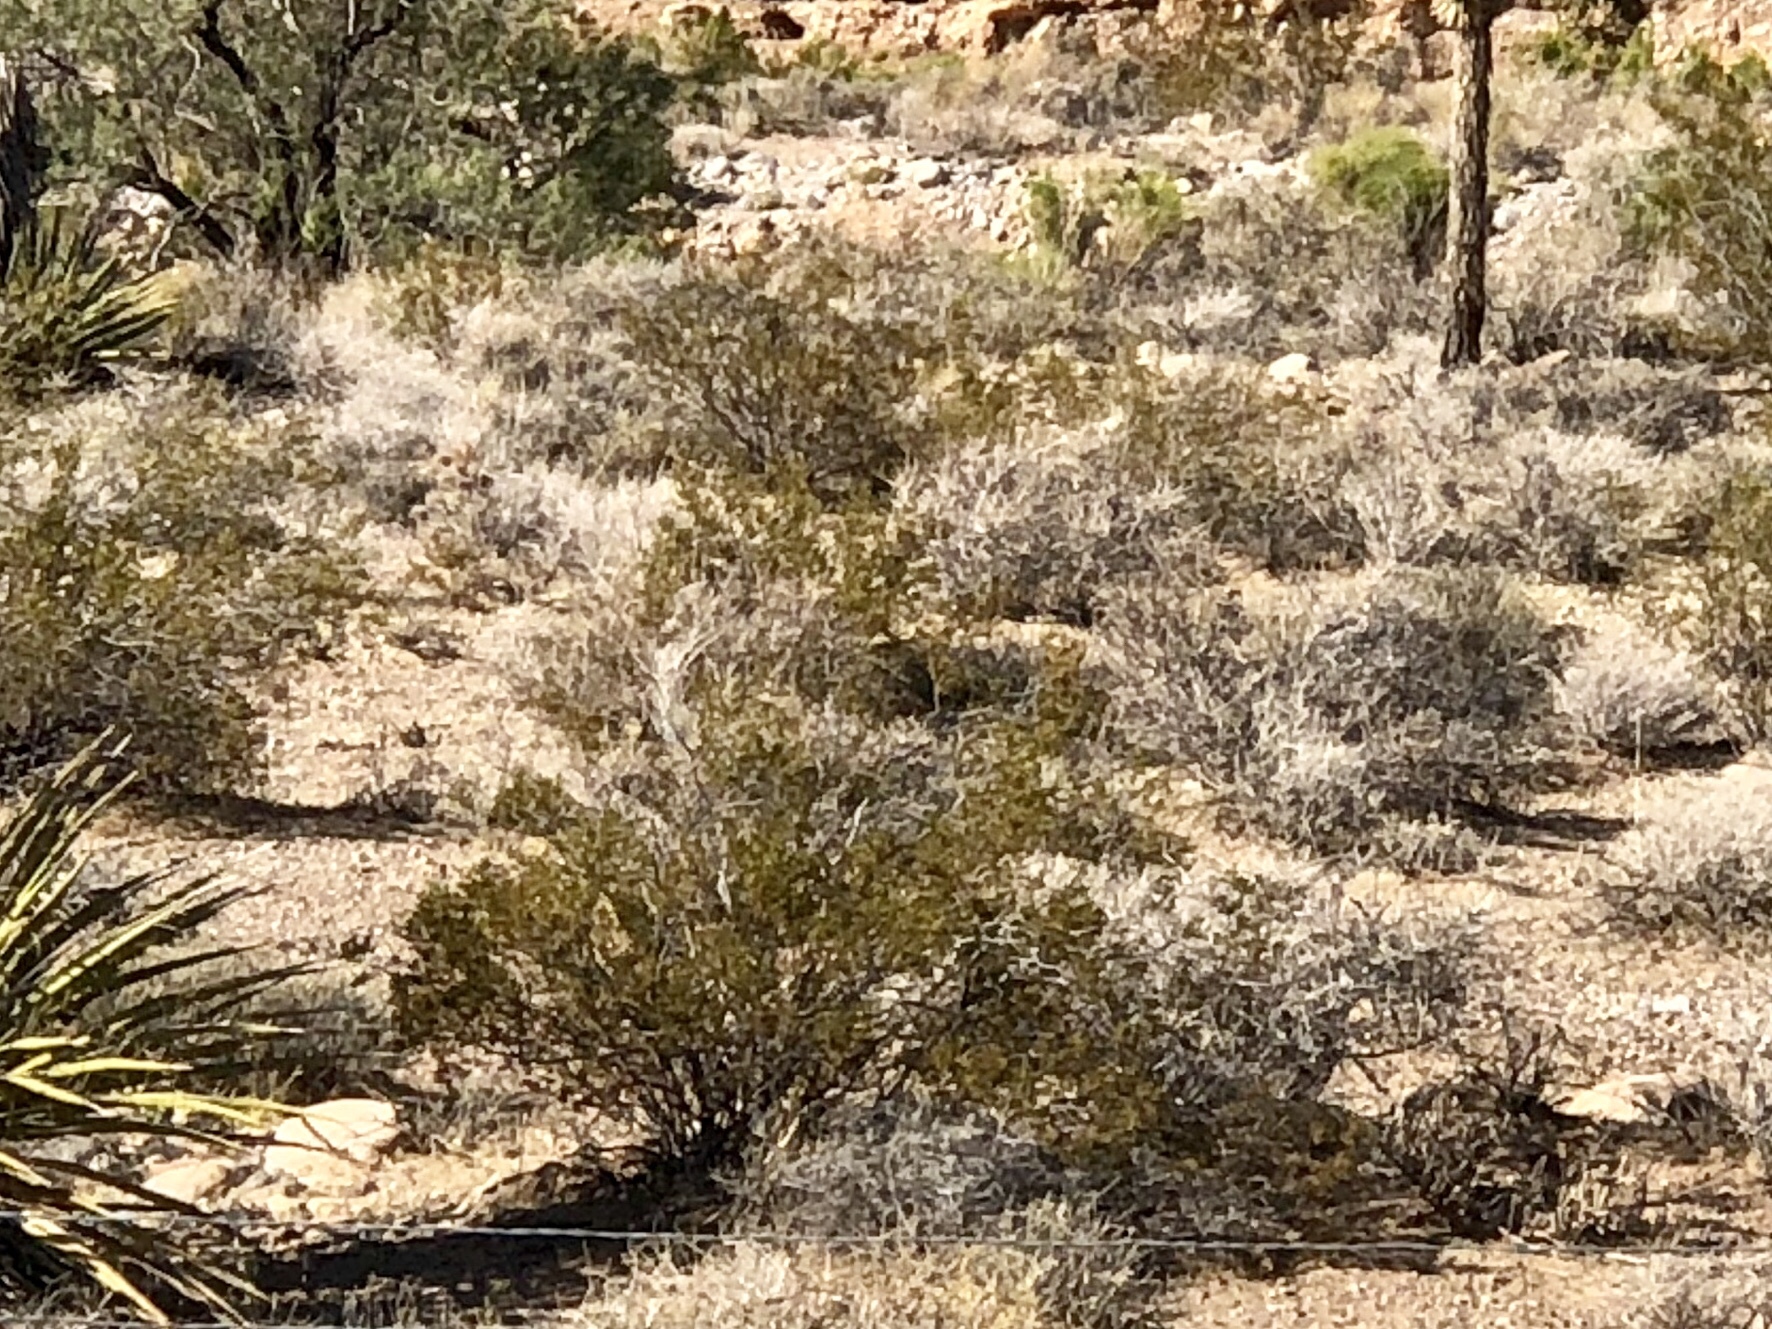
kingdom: Plantae
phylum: Tracheophyta
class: Magnoliopsida
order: Zygophyllales
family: Zygophyllaceae
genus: Larrea
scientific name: Larrea tridentata
